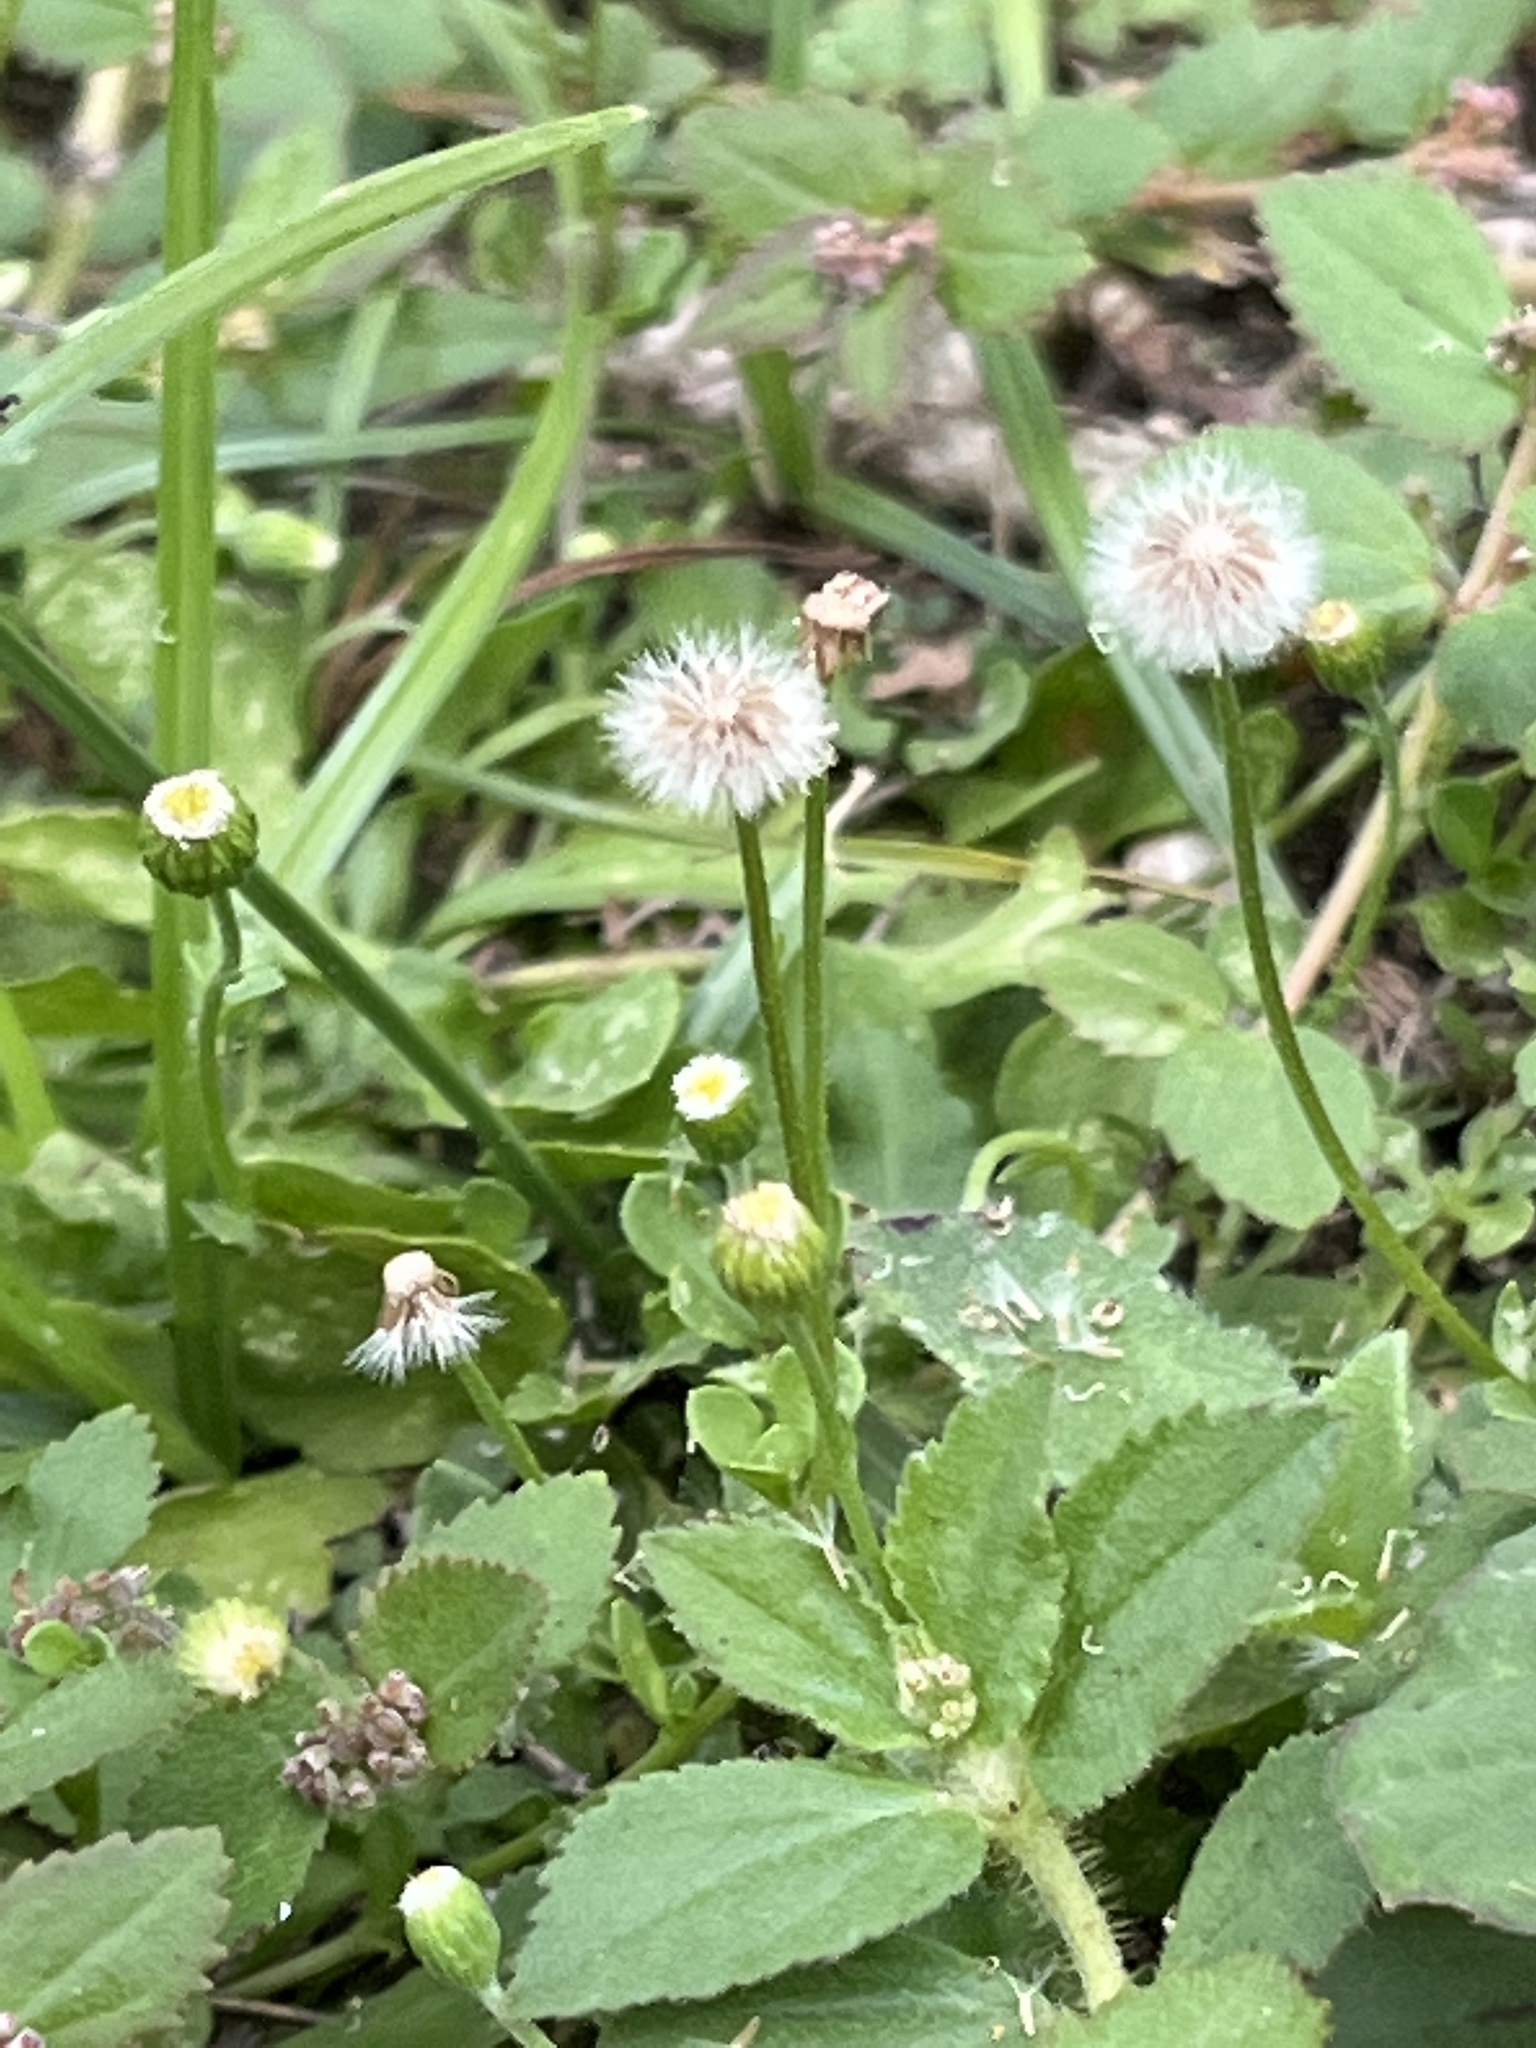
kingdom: Plantae
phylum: Tracheophyta
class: Magnoliopsida
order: Asterales
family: Asteraceae
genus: Erigeron
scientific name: Erigeron bellioides
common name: Bellorita
